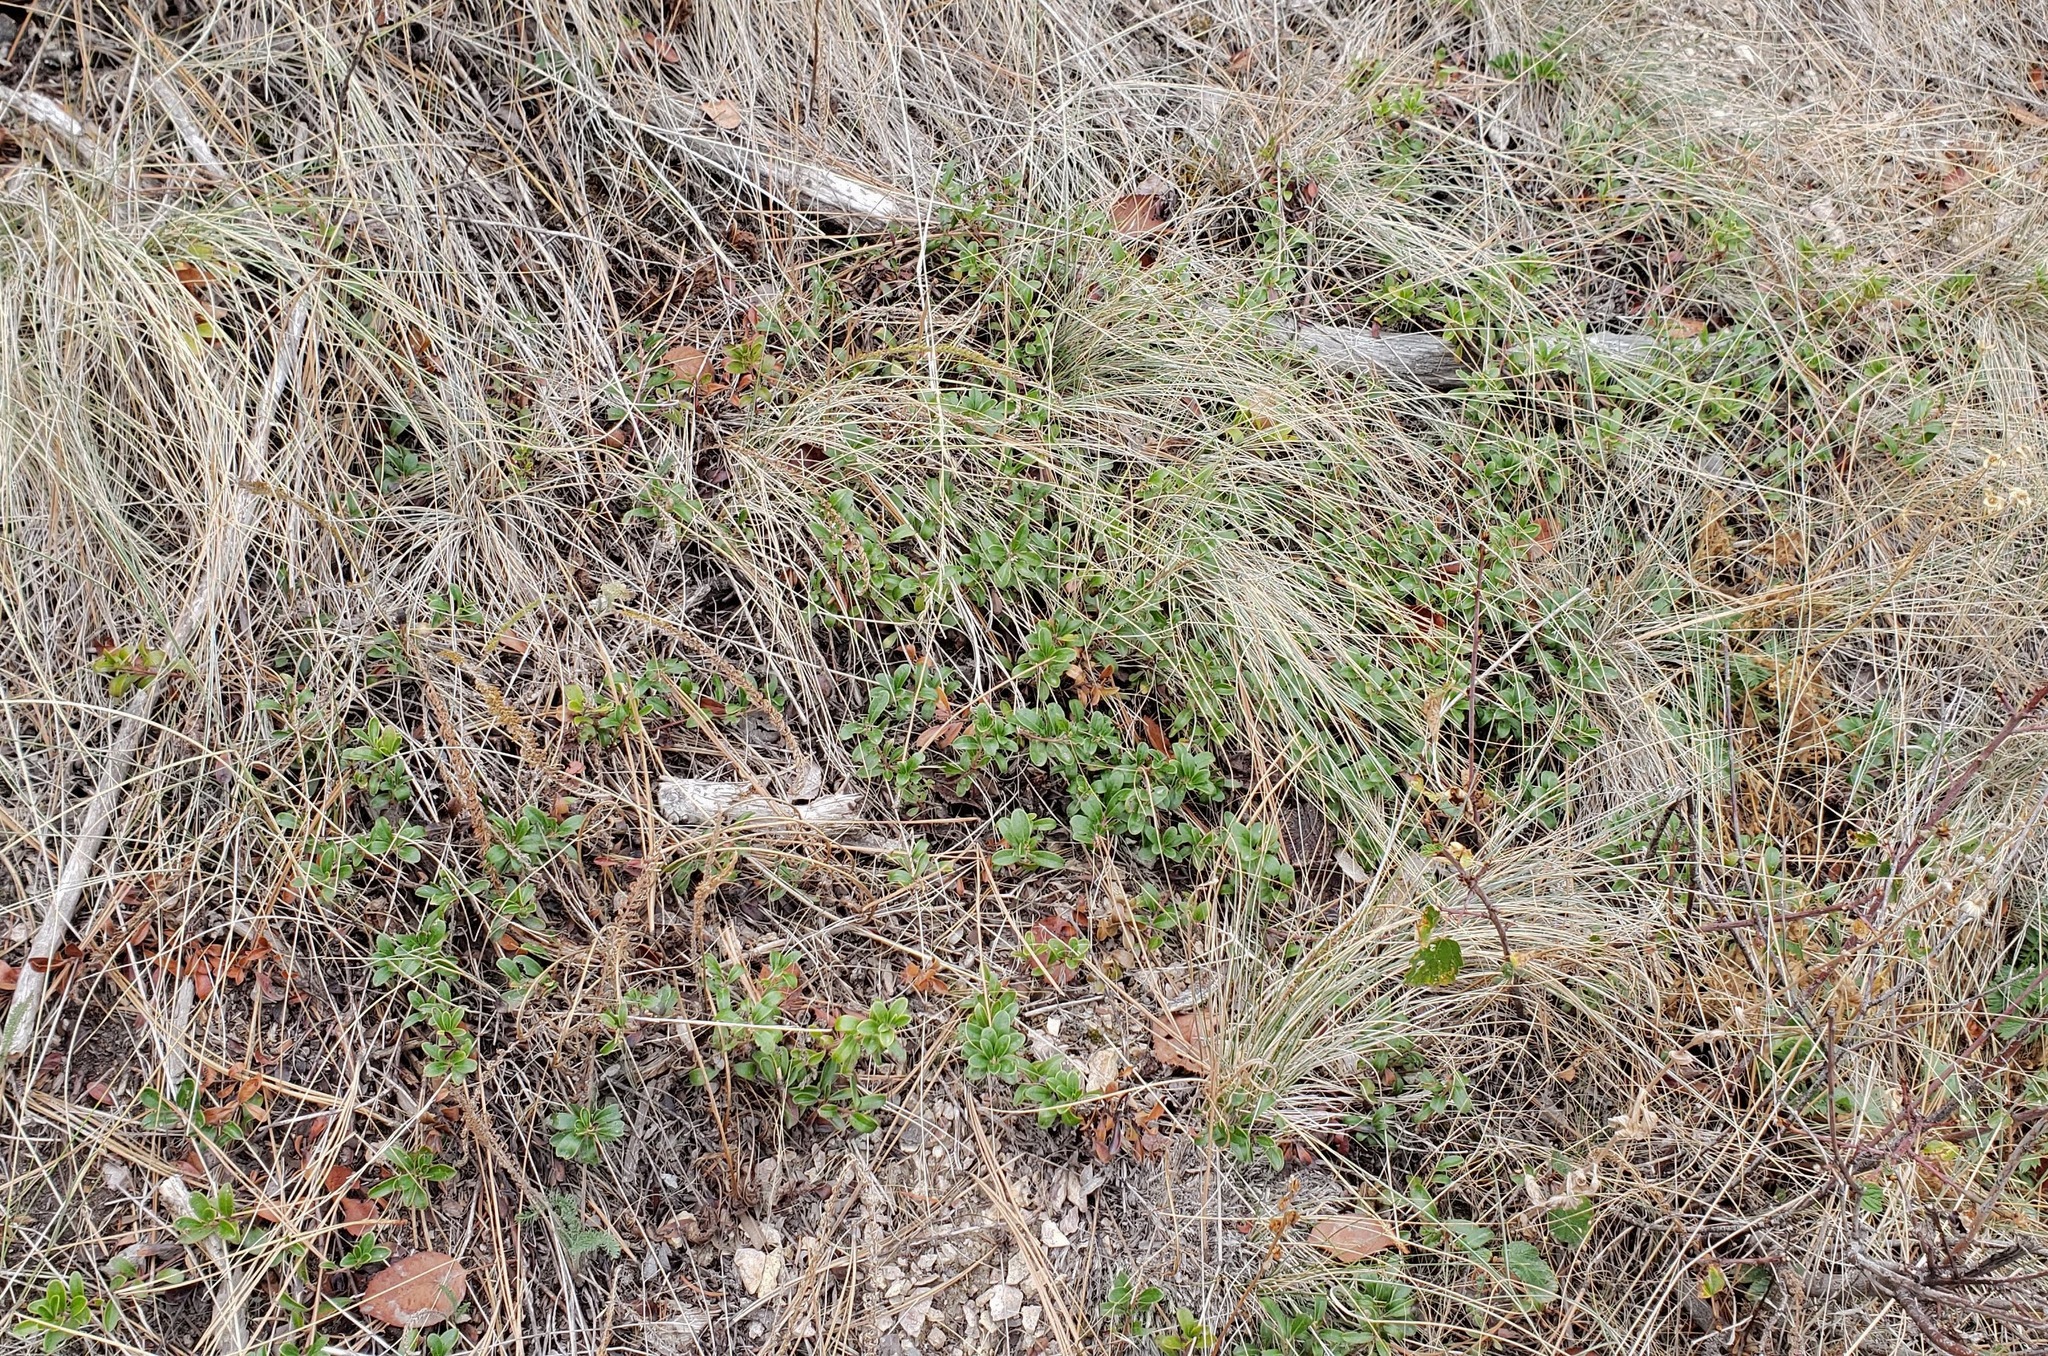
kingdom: Plantae
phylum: Tracheophyta
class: Magnoliopsida
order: Ericales
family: Ericaceae
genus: Arctostaphylos
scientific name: Arctostaphylos uva-ursi
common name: Bearberry
